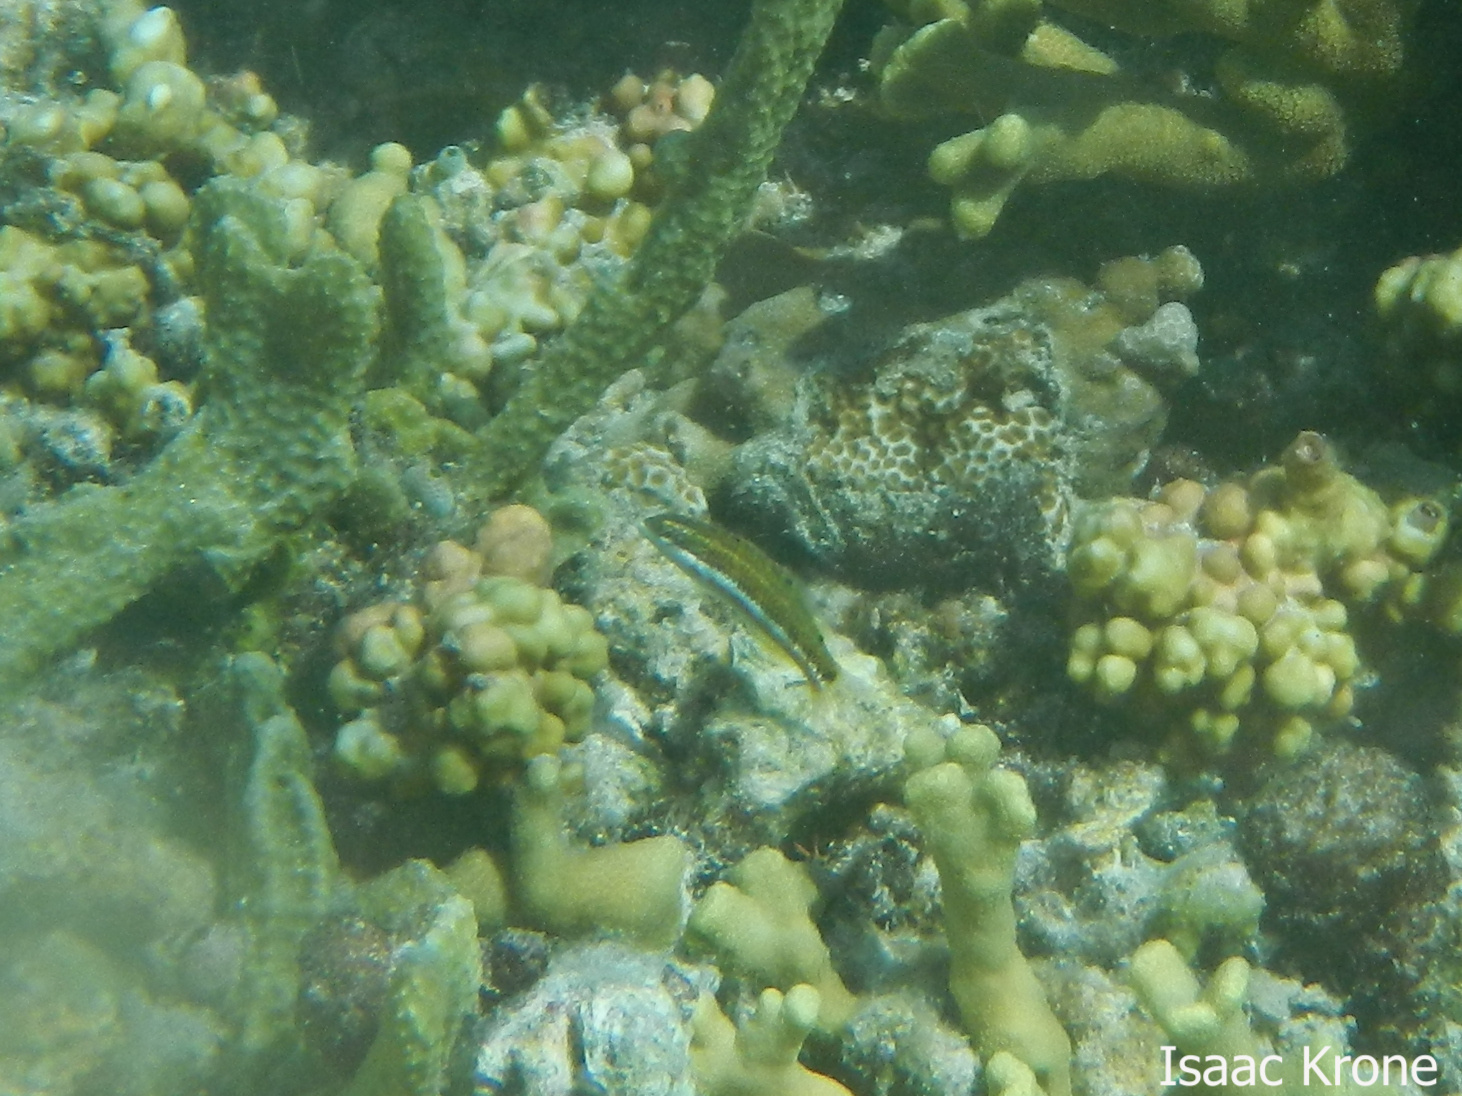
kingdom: Animalia
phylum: Chordata
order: Perciformes
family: Labridae
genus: Thalassoma
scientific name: Thalassoma quinquevittatum
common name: Five striped surge wrasse
